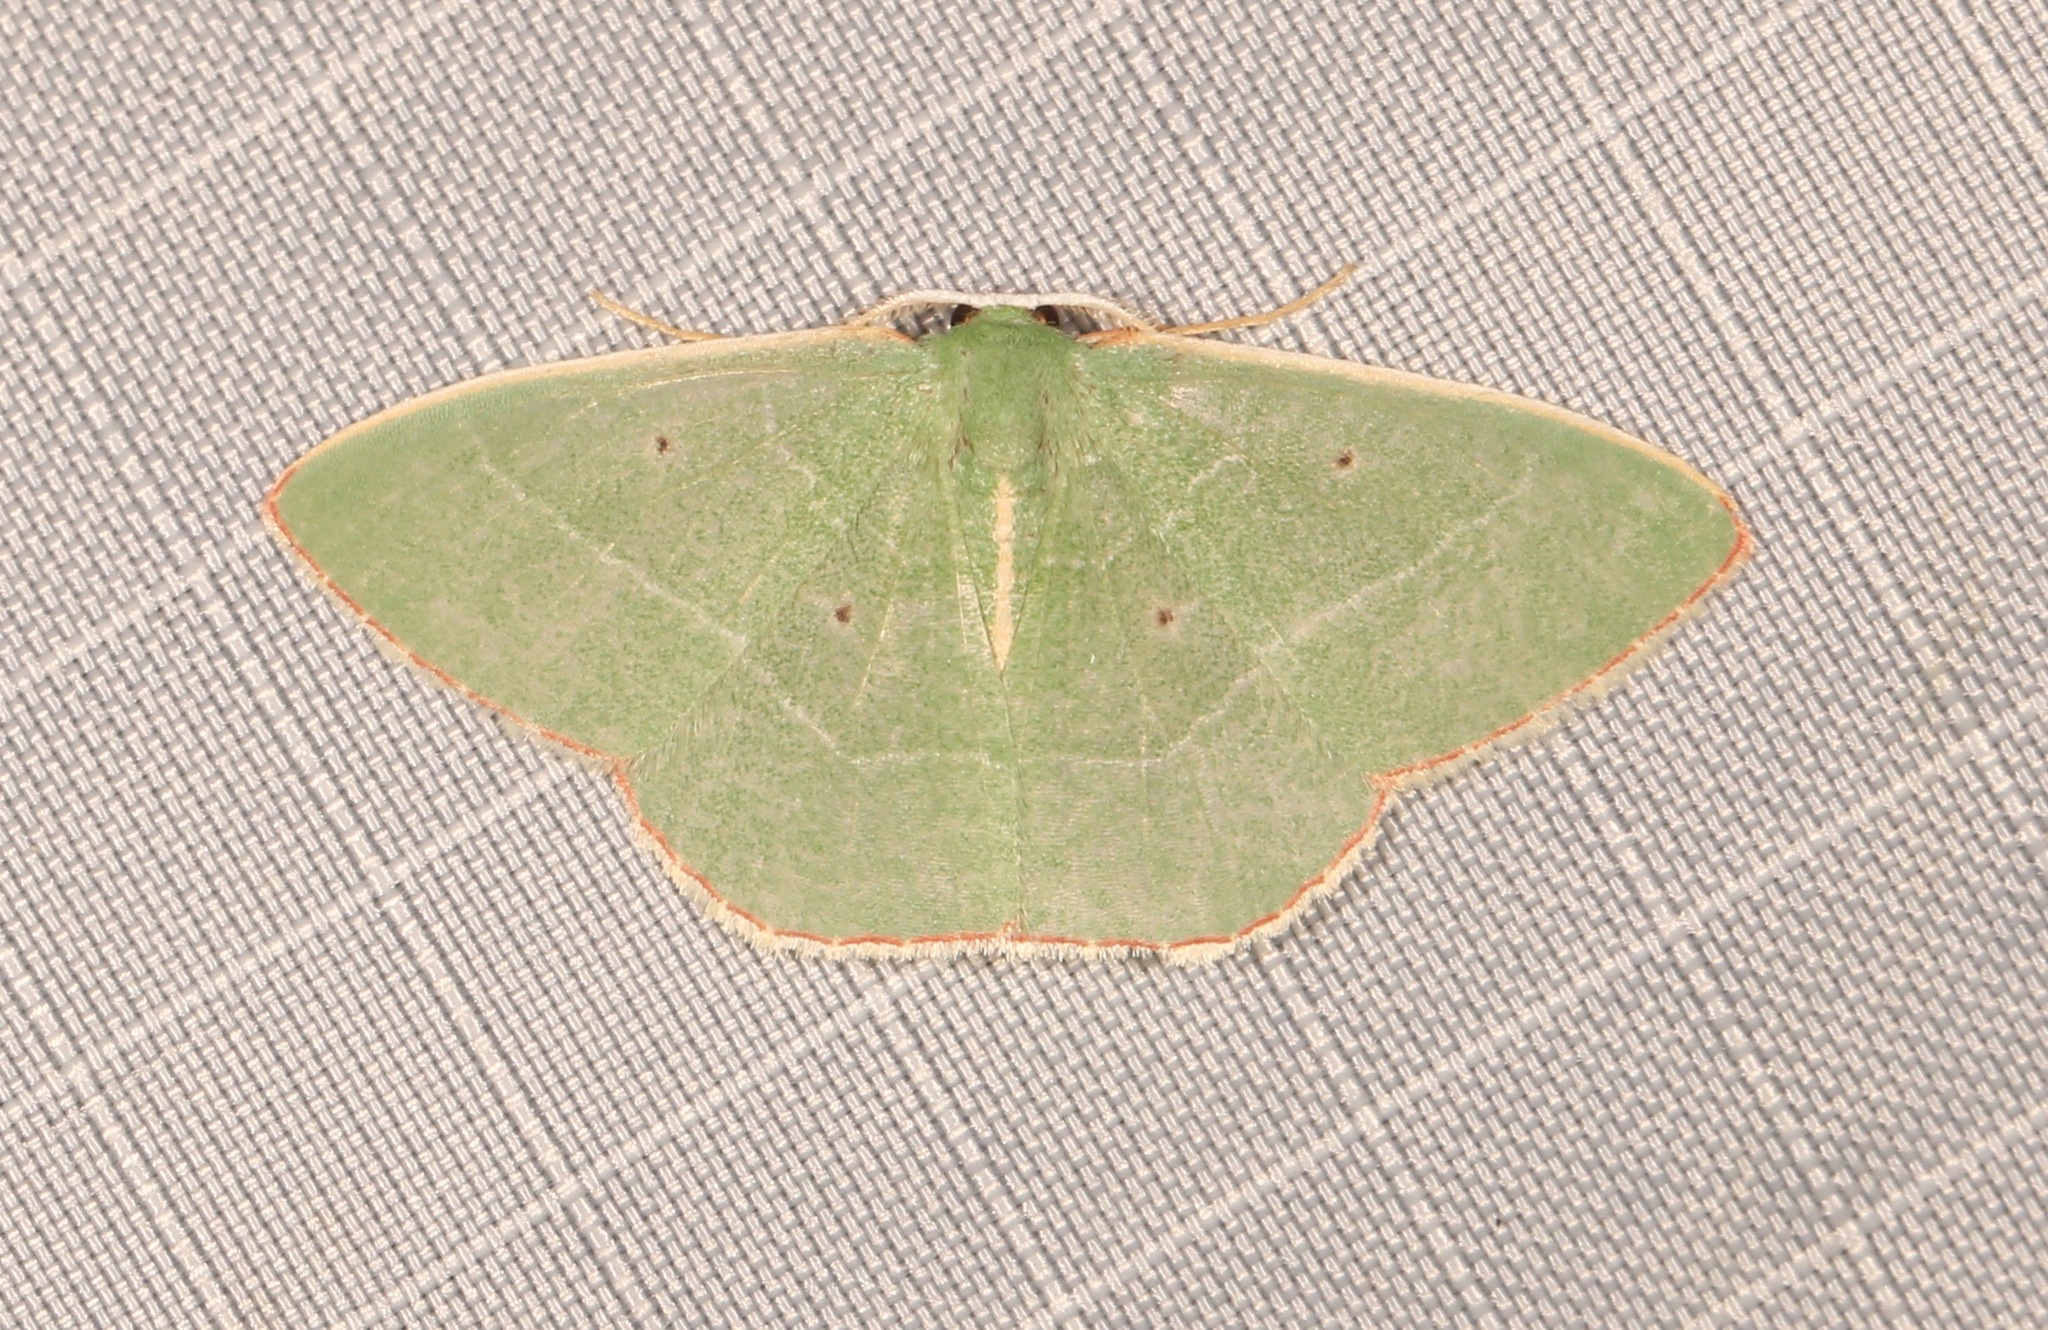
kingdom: Animalia
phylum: Arthropoda
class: Insecta
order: Lepidoptera
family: Geometridae
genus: Nemoria
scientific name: Nemoria bifilata
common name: White-barred emerald moth
